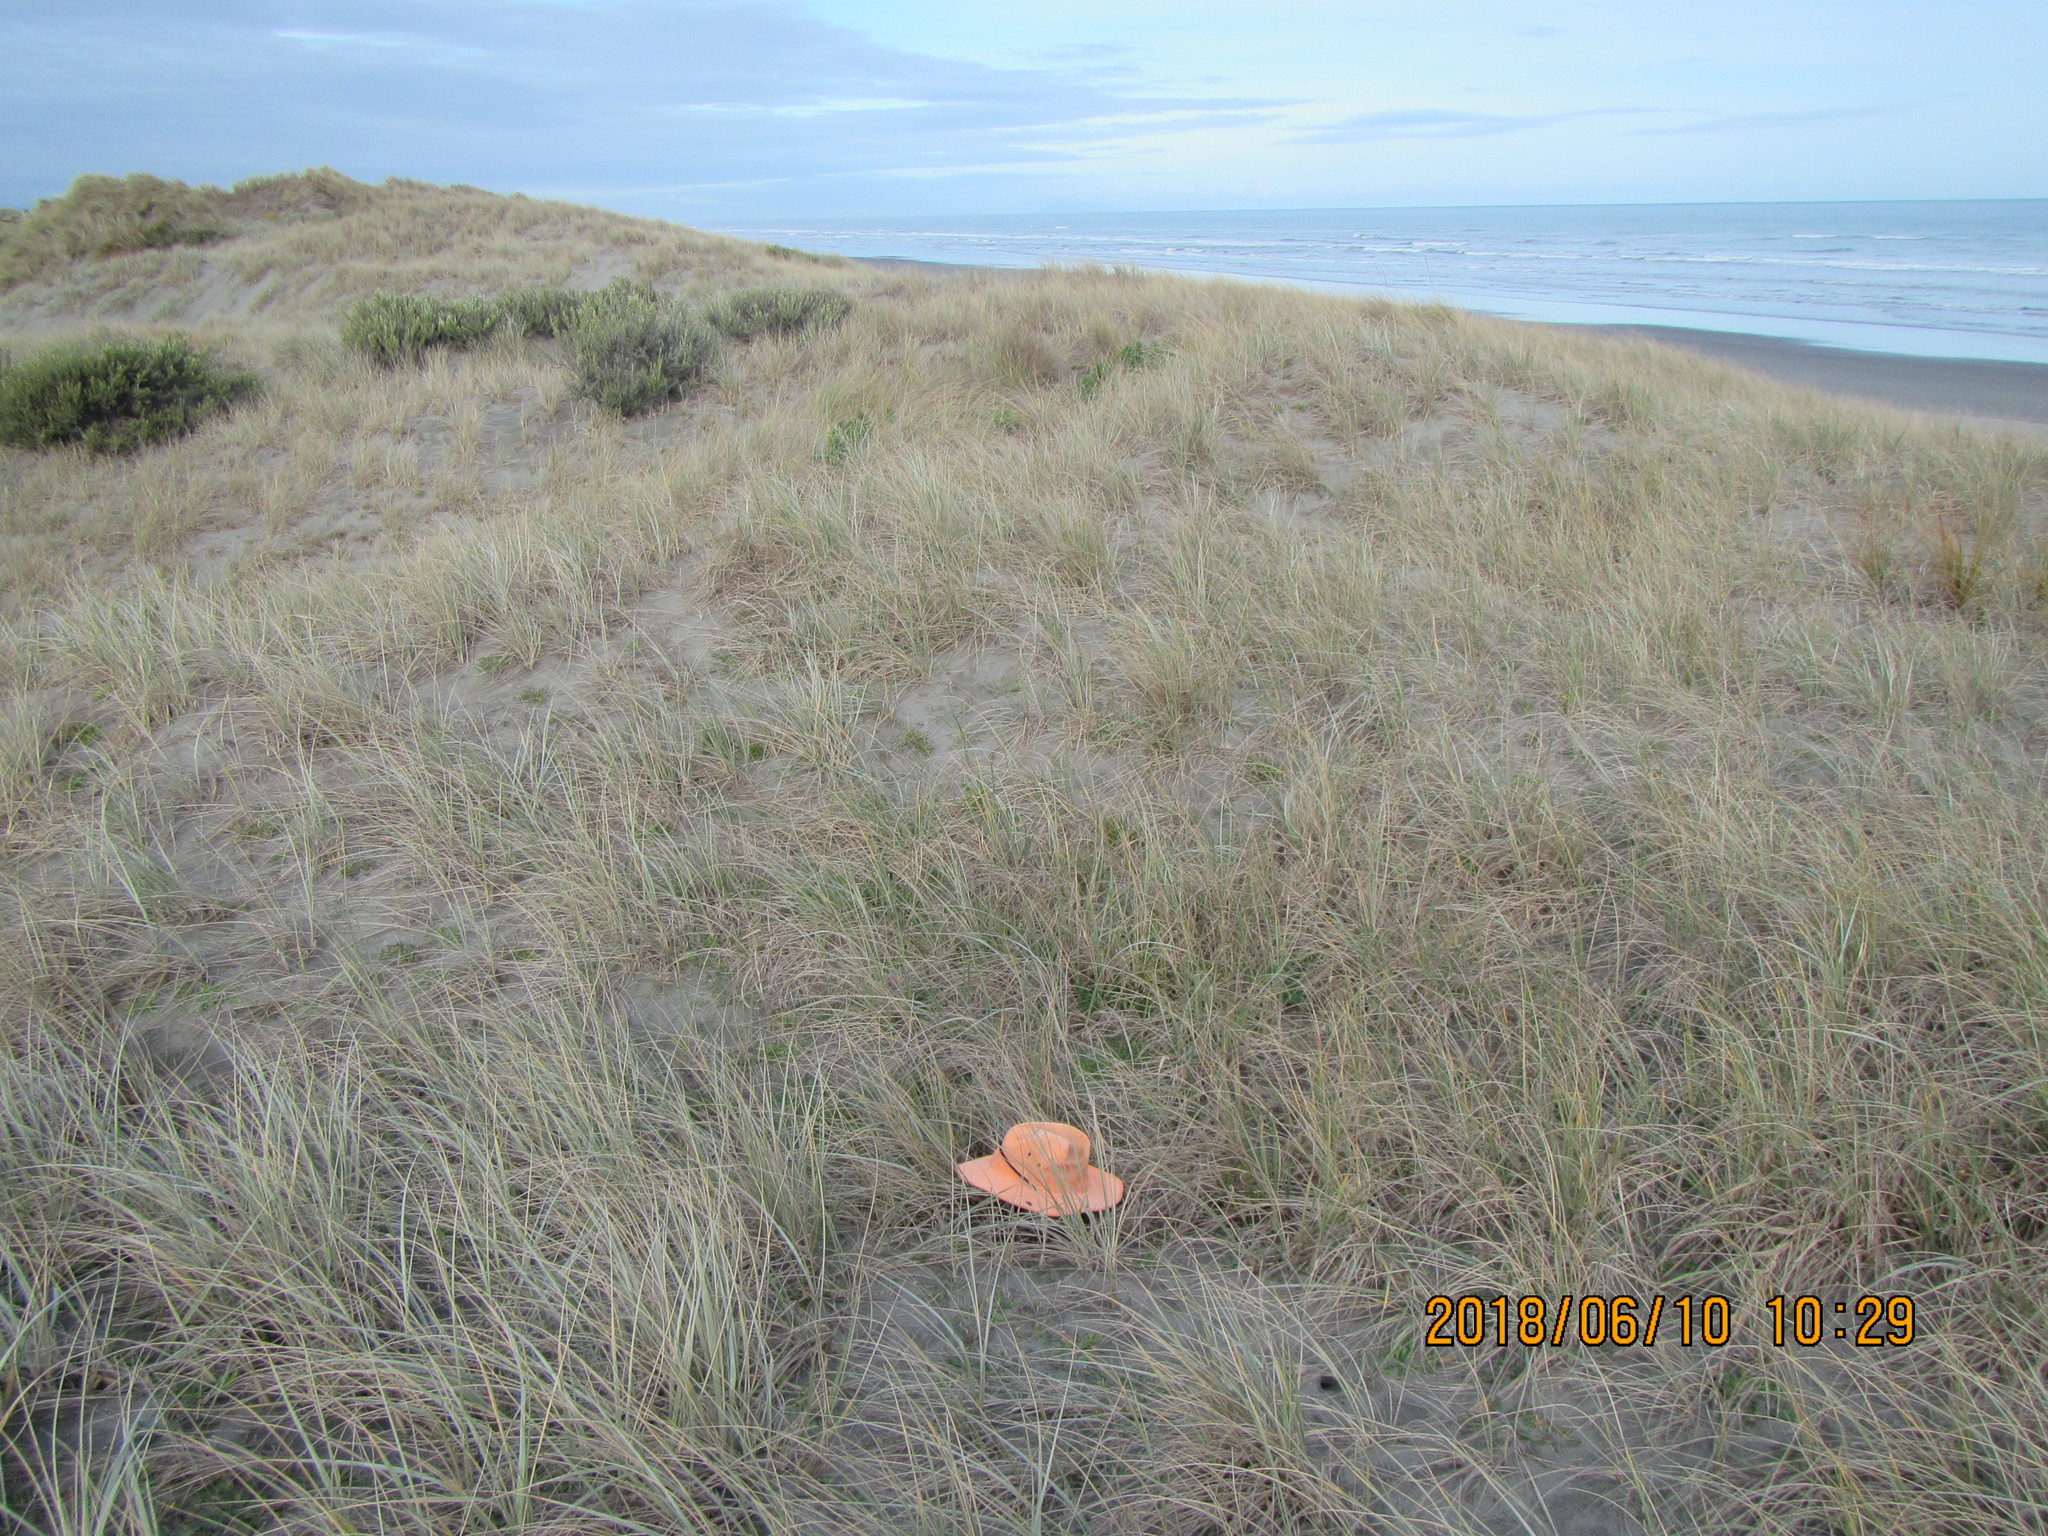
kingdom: Animalia
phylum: Arthropoda
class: Arachnida
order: Opiliones
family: Phalangiidae
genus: Phalangium
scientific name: Phalangium opilio
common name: Daddy longleg
